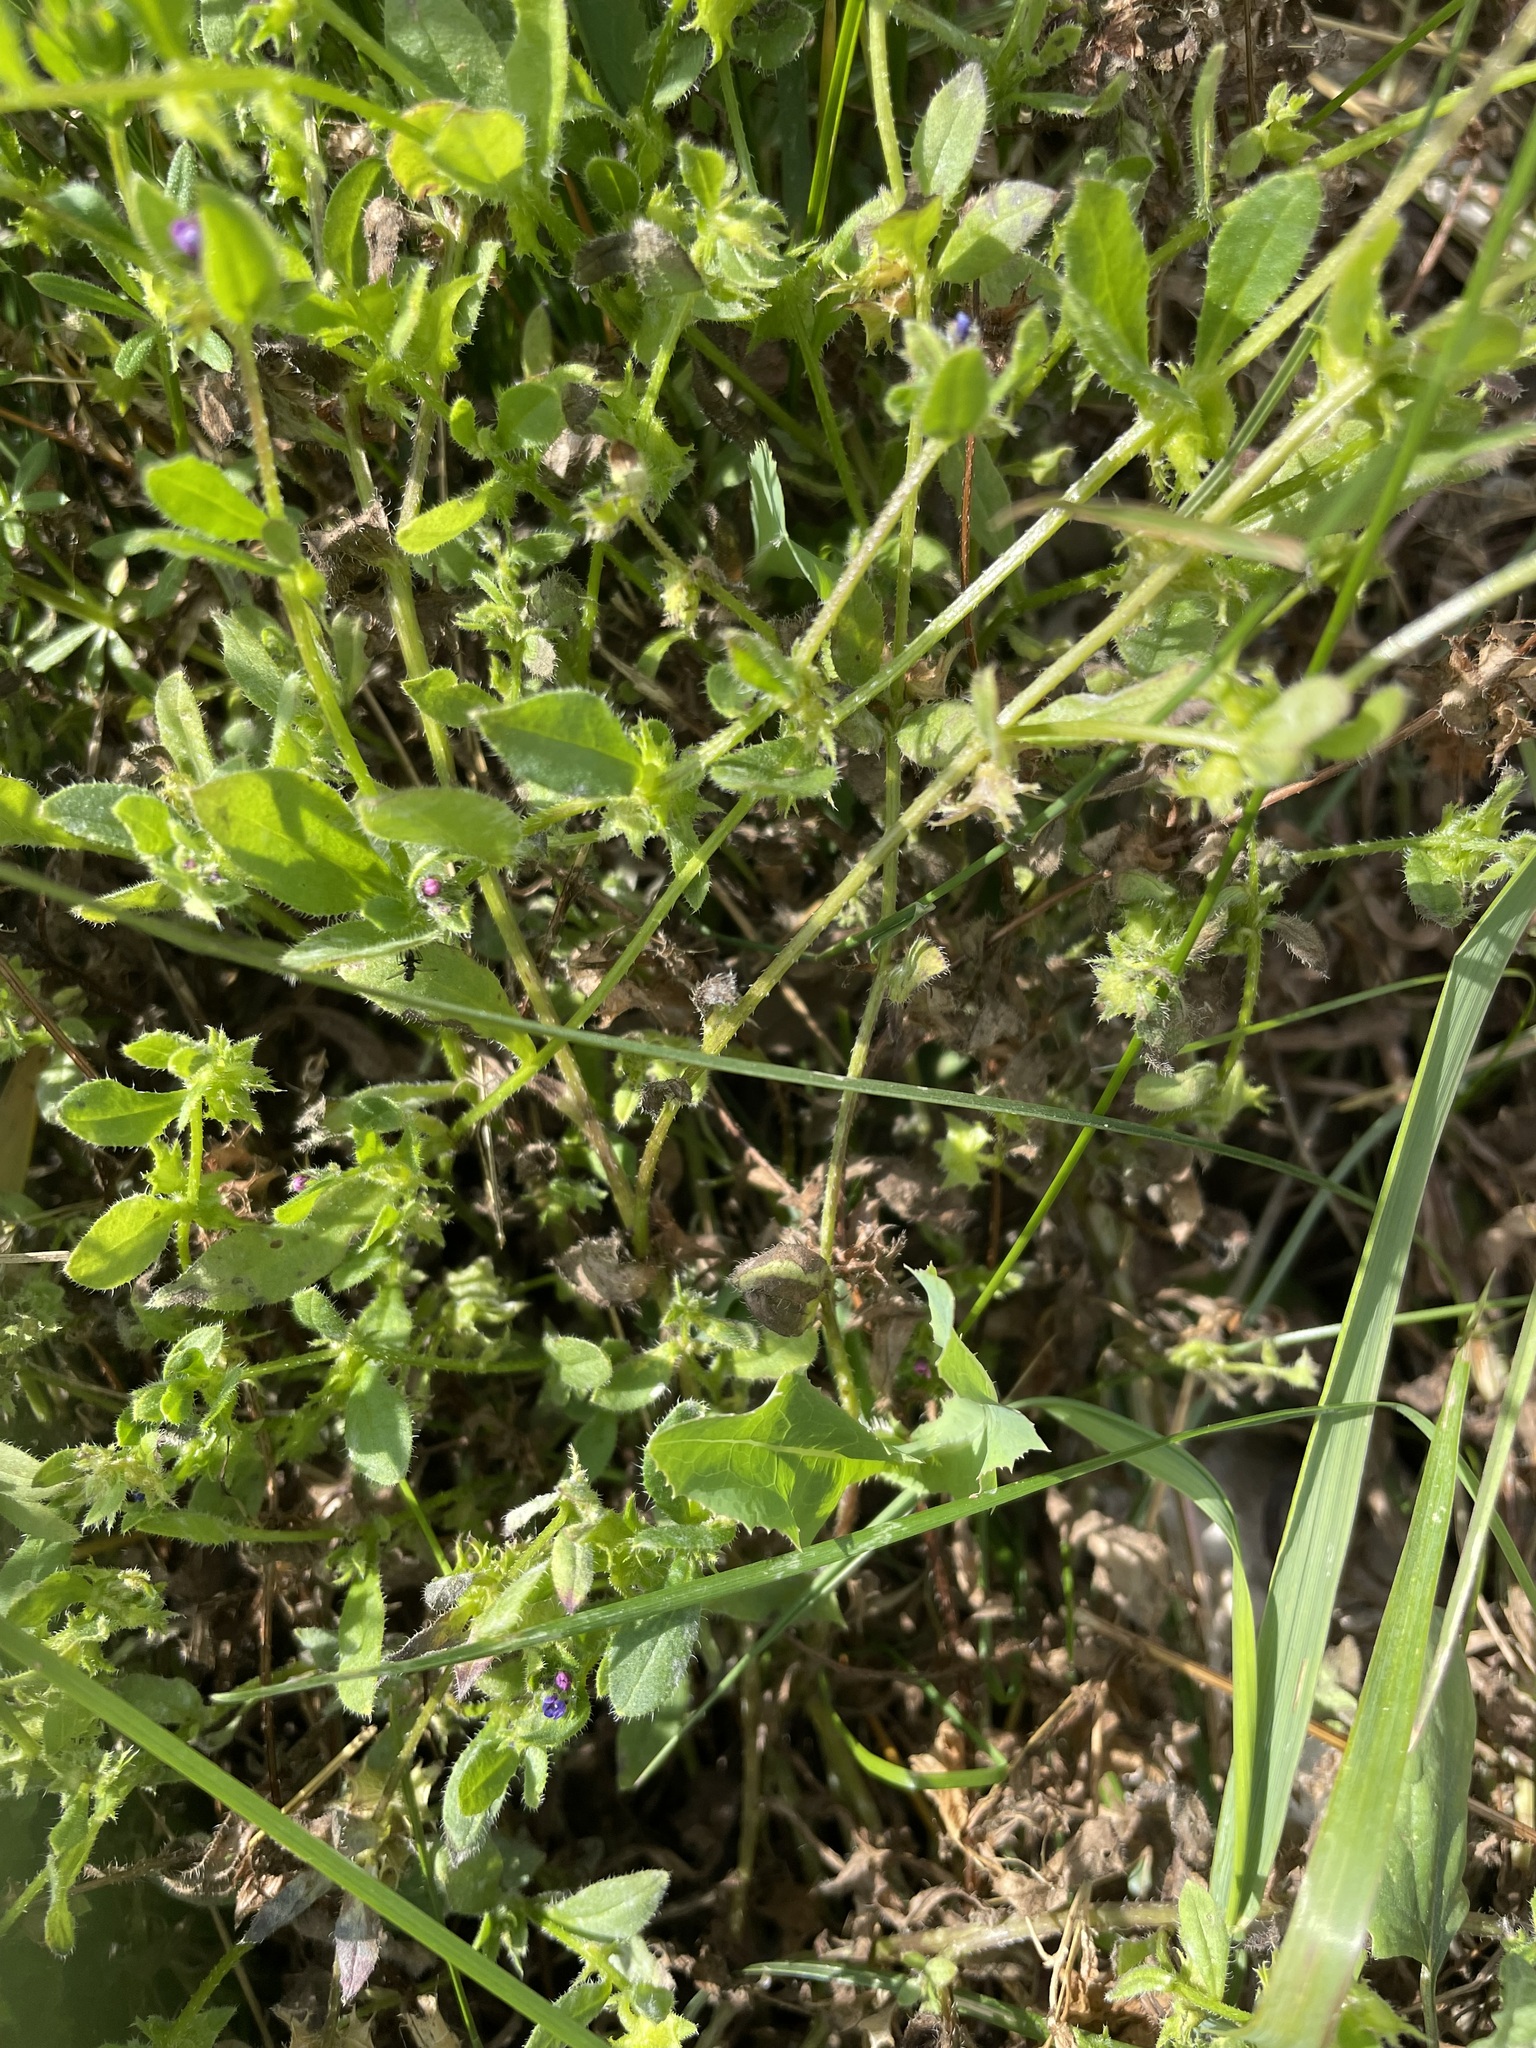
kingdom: Plantae
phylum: Tracheophyta
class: Magnoliopsida
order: Boraginales
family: Boraginaceae
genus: Asperugo
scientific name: Asperugo procumbens
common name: Madwort
